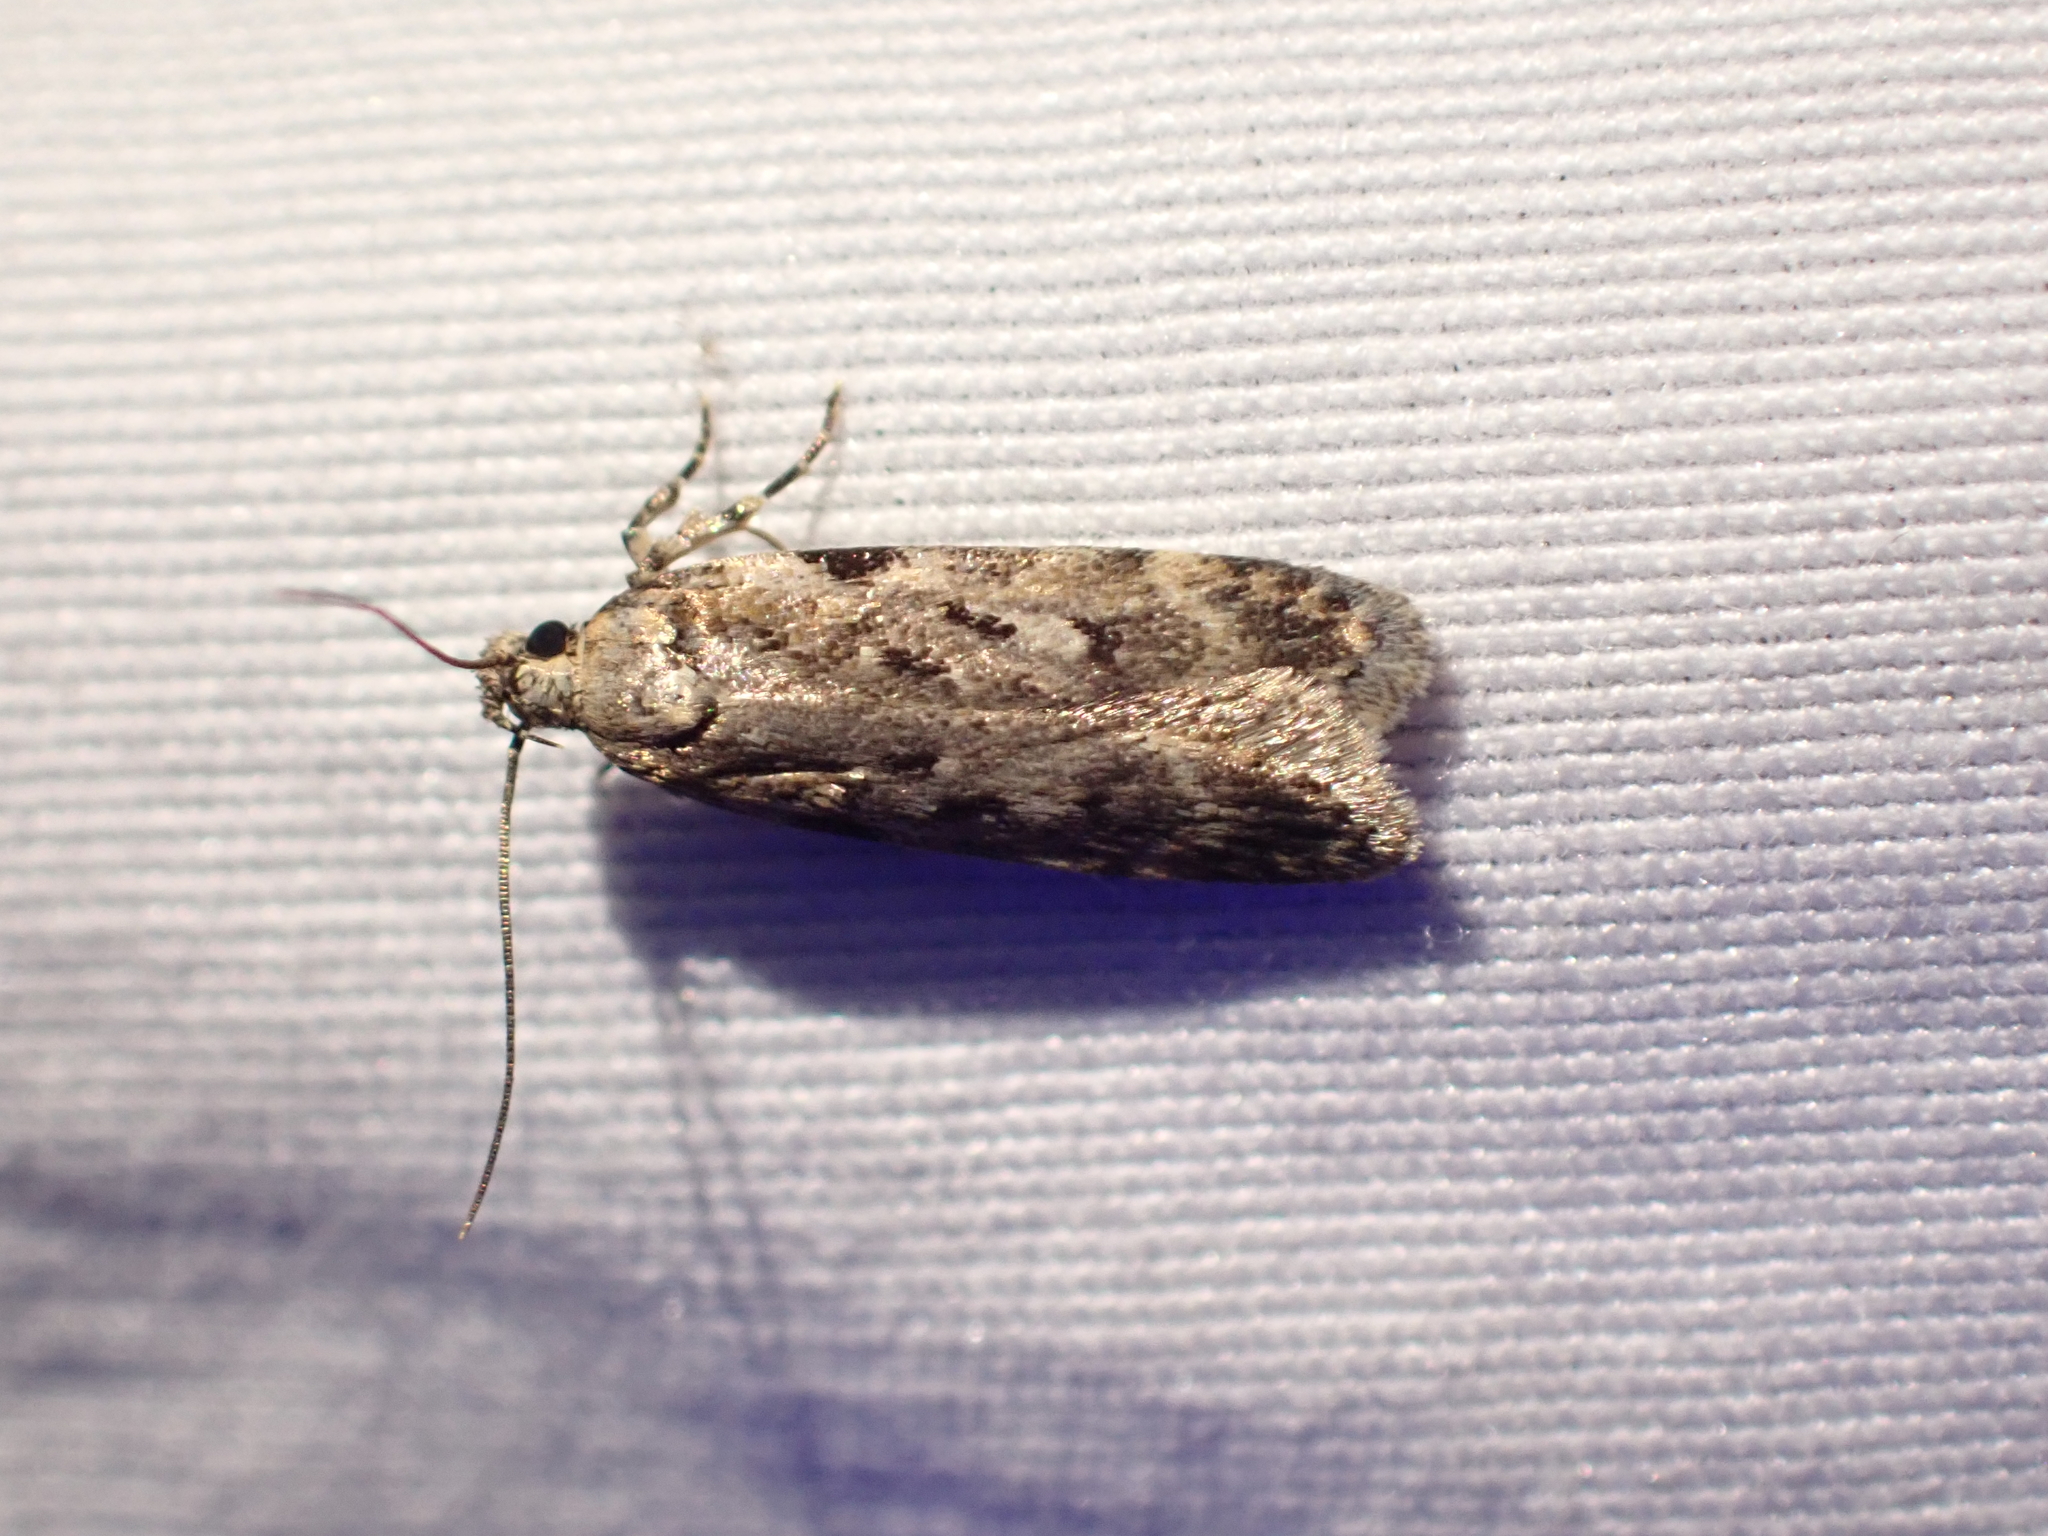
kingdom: Animalia
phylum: Arthropoda
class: Insecta
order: Lepidoptera
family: Gelechiidae
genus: Chionodes
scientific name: Chionodes petalumensis
